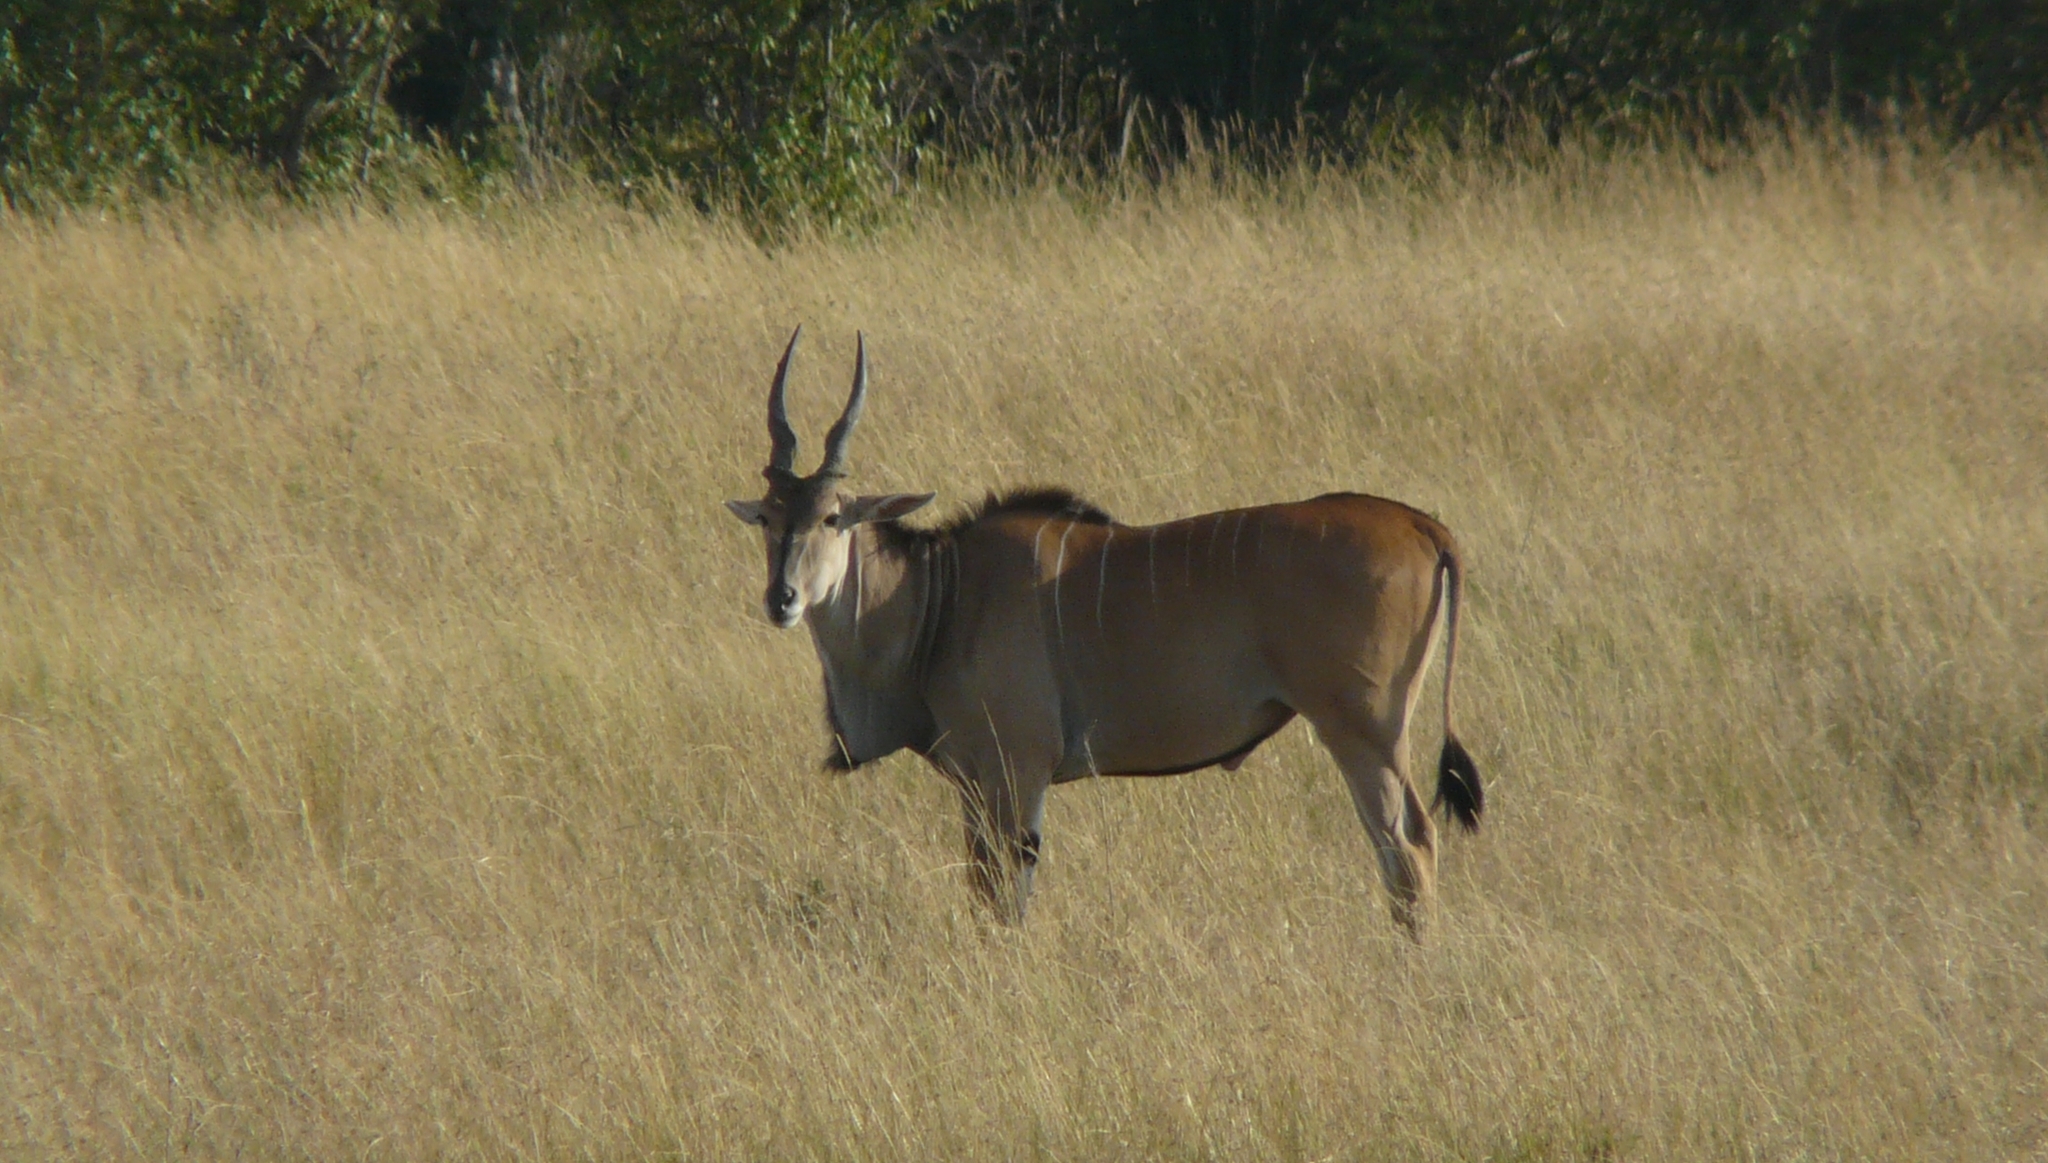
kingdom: Animalia
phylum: Chordata
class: Mammalia
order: Artiodactyla
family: Bovidae
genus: Taurotragus
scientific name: Taurotragus oryx
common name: Common eland
